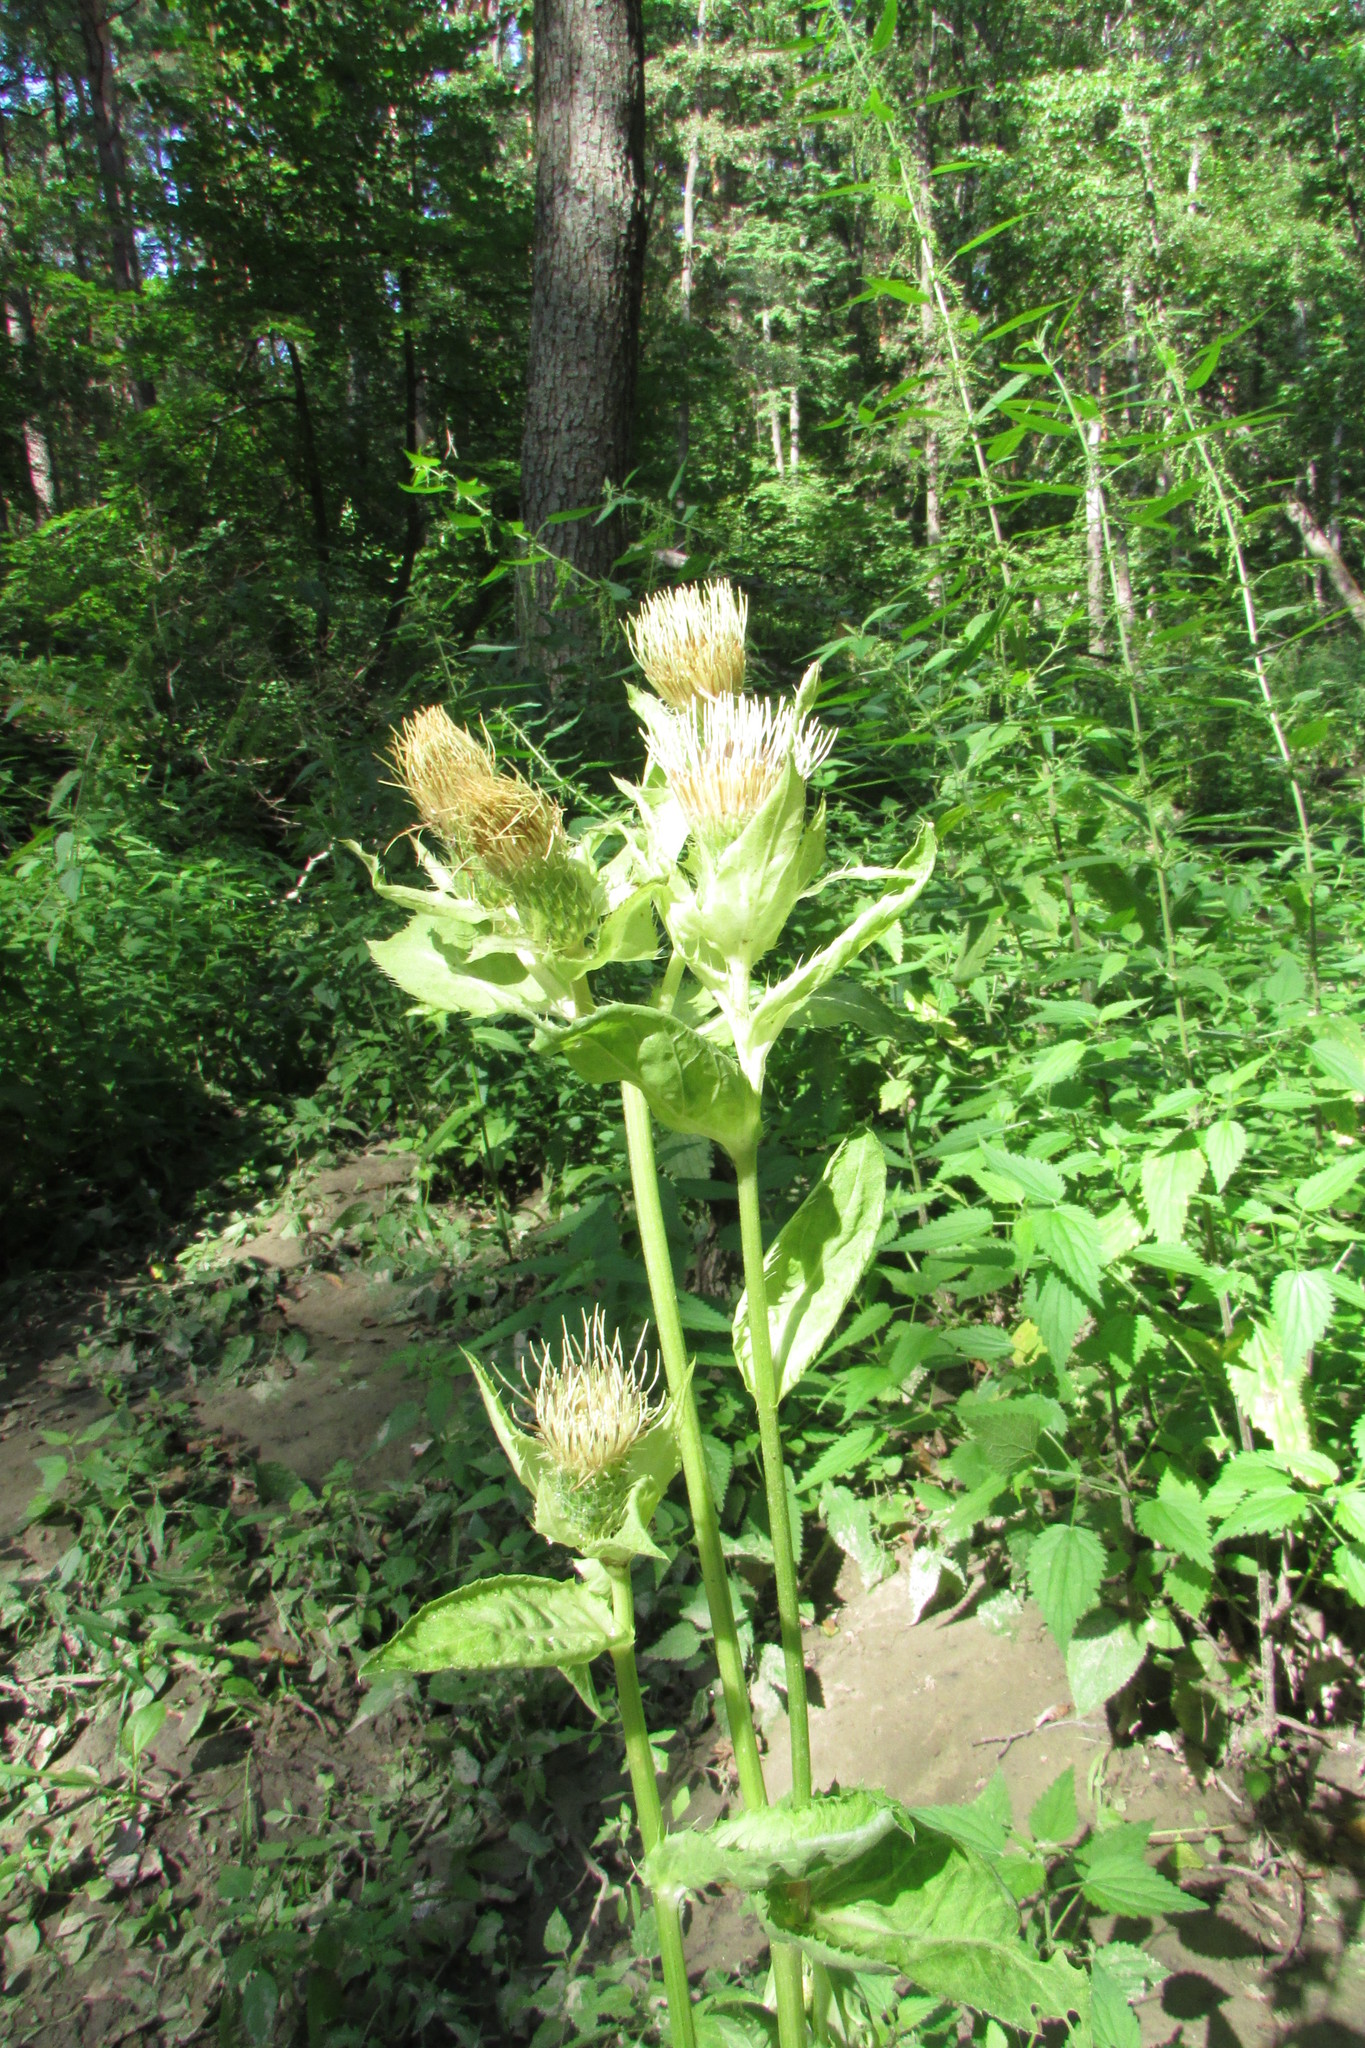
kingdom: Plantae
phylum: Tracheophyta
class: Magnoliopsida
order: Asterales
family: Asteraceae
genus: Cirsium
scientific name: Cirsium oleraceum
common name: Cabbage thistle
